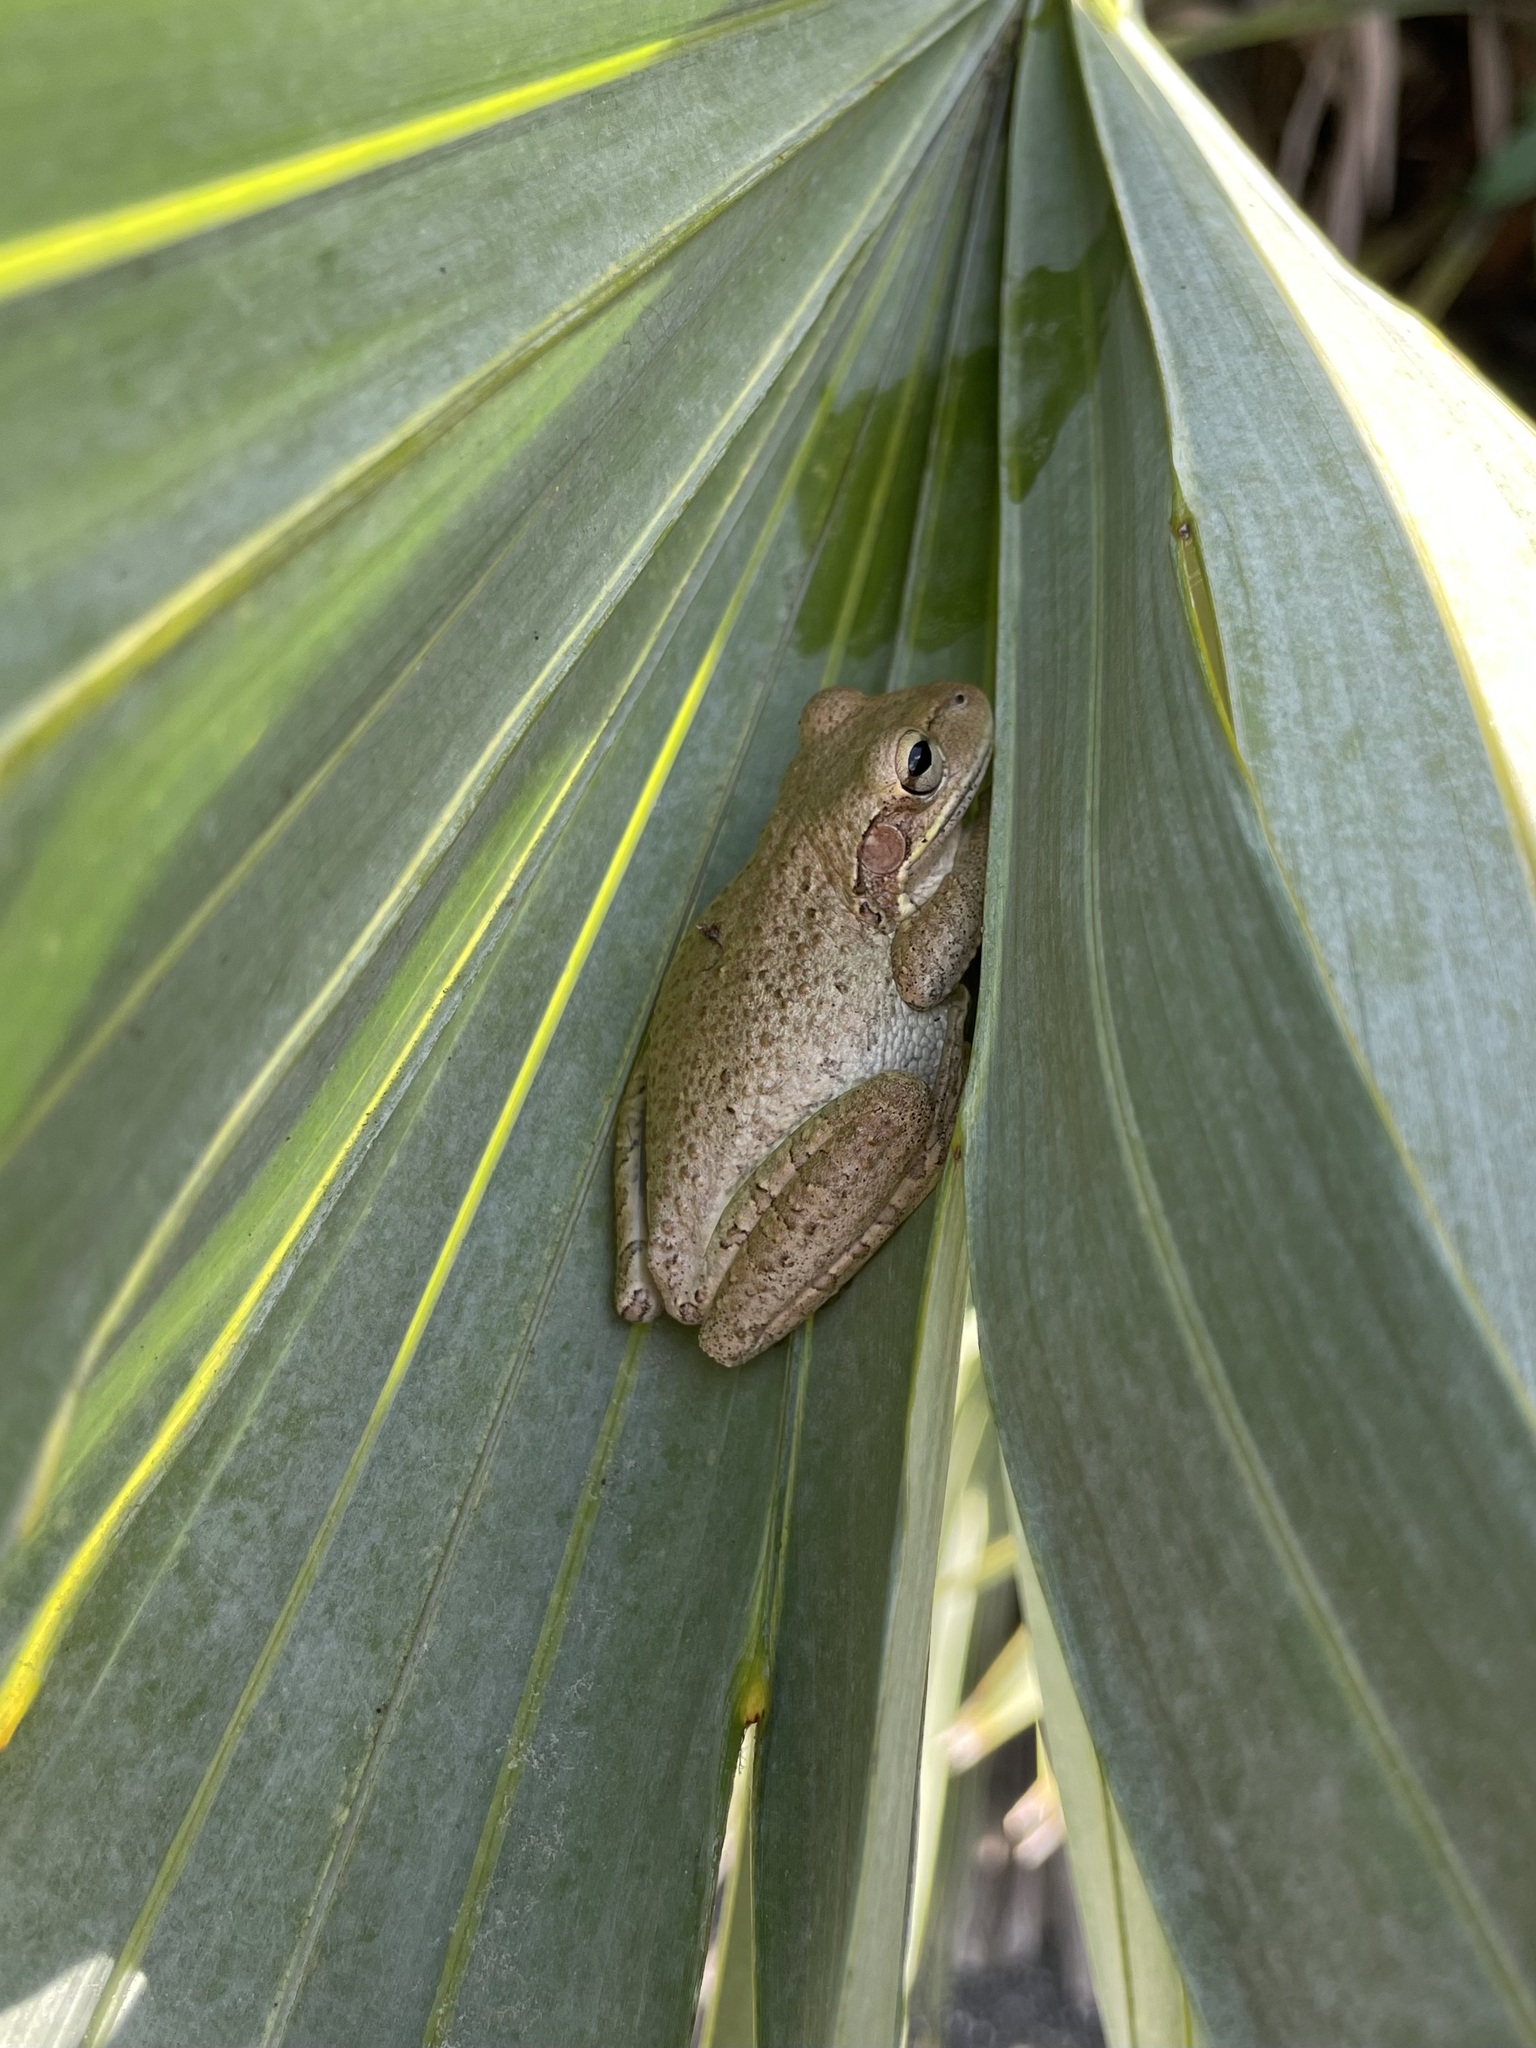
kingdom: Animalia
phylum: Chordata
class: Amphibia
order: Anura
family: Hylidae
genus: Osteopilus
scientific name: Osteopilus septentrionalis
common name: Cuban treefrog
